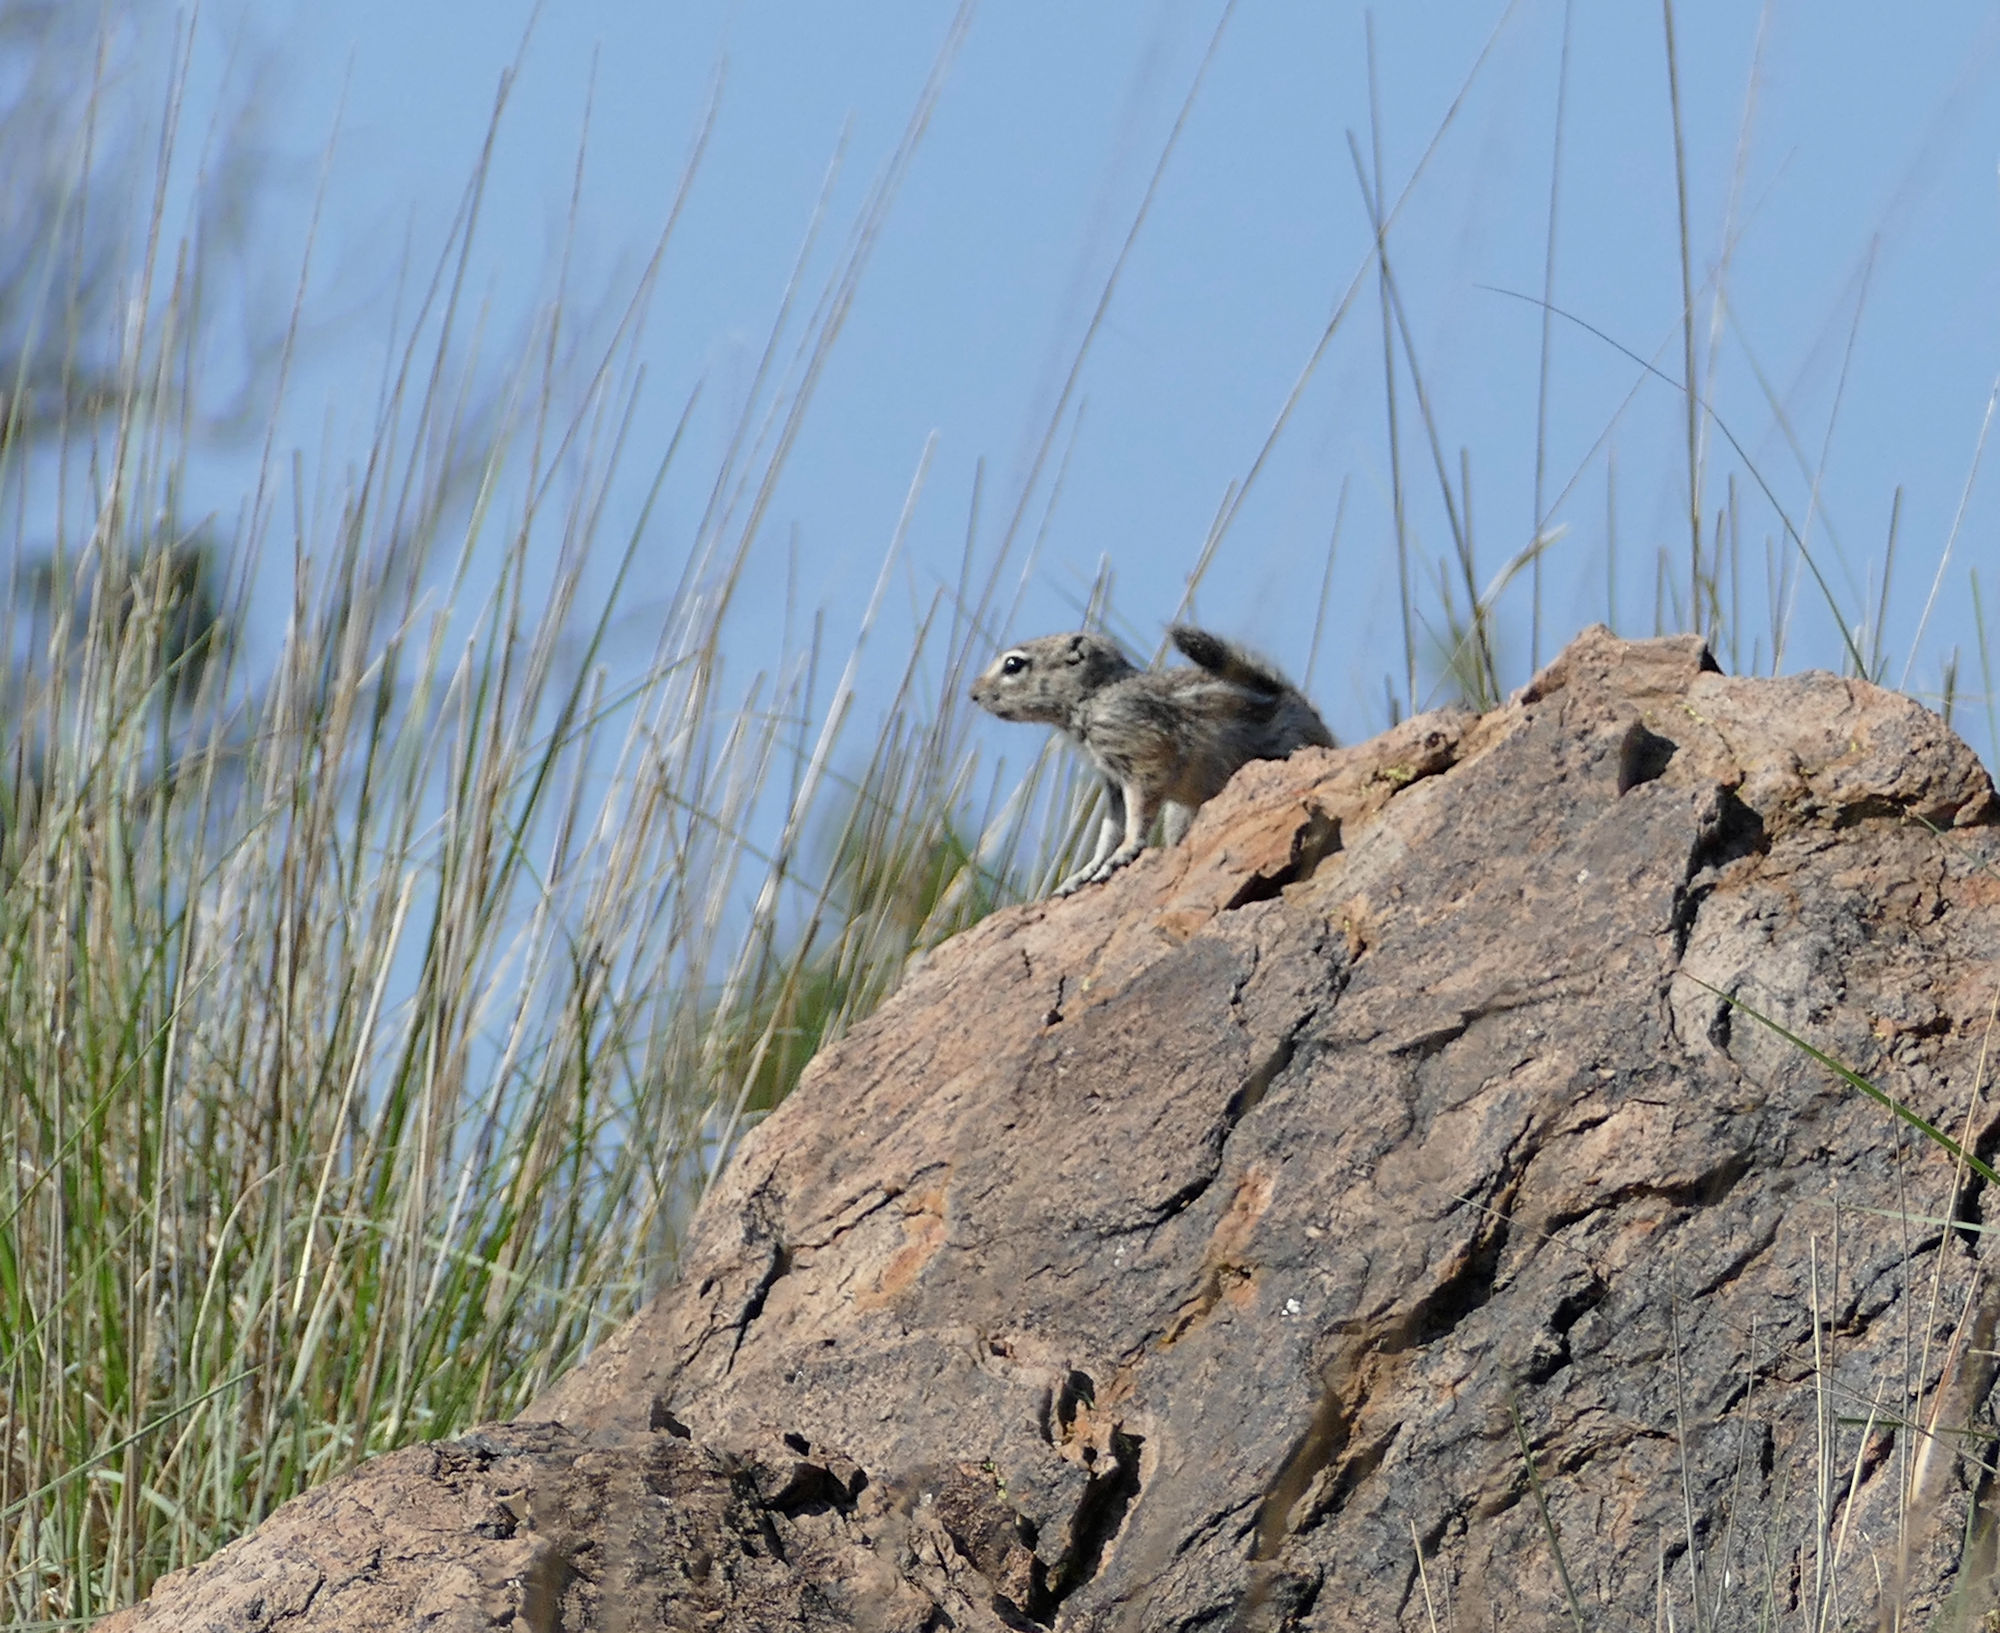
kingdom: Animalia
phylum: Chordata
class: Mammalia
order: Rodentia
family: Sciuridae
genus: Ammospermophilus
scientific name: Ammospermophilus interpres
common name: Texas antelope squirrel
